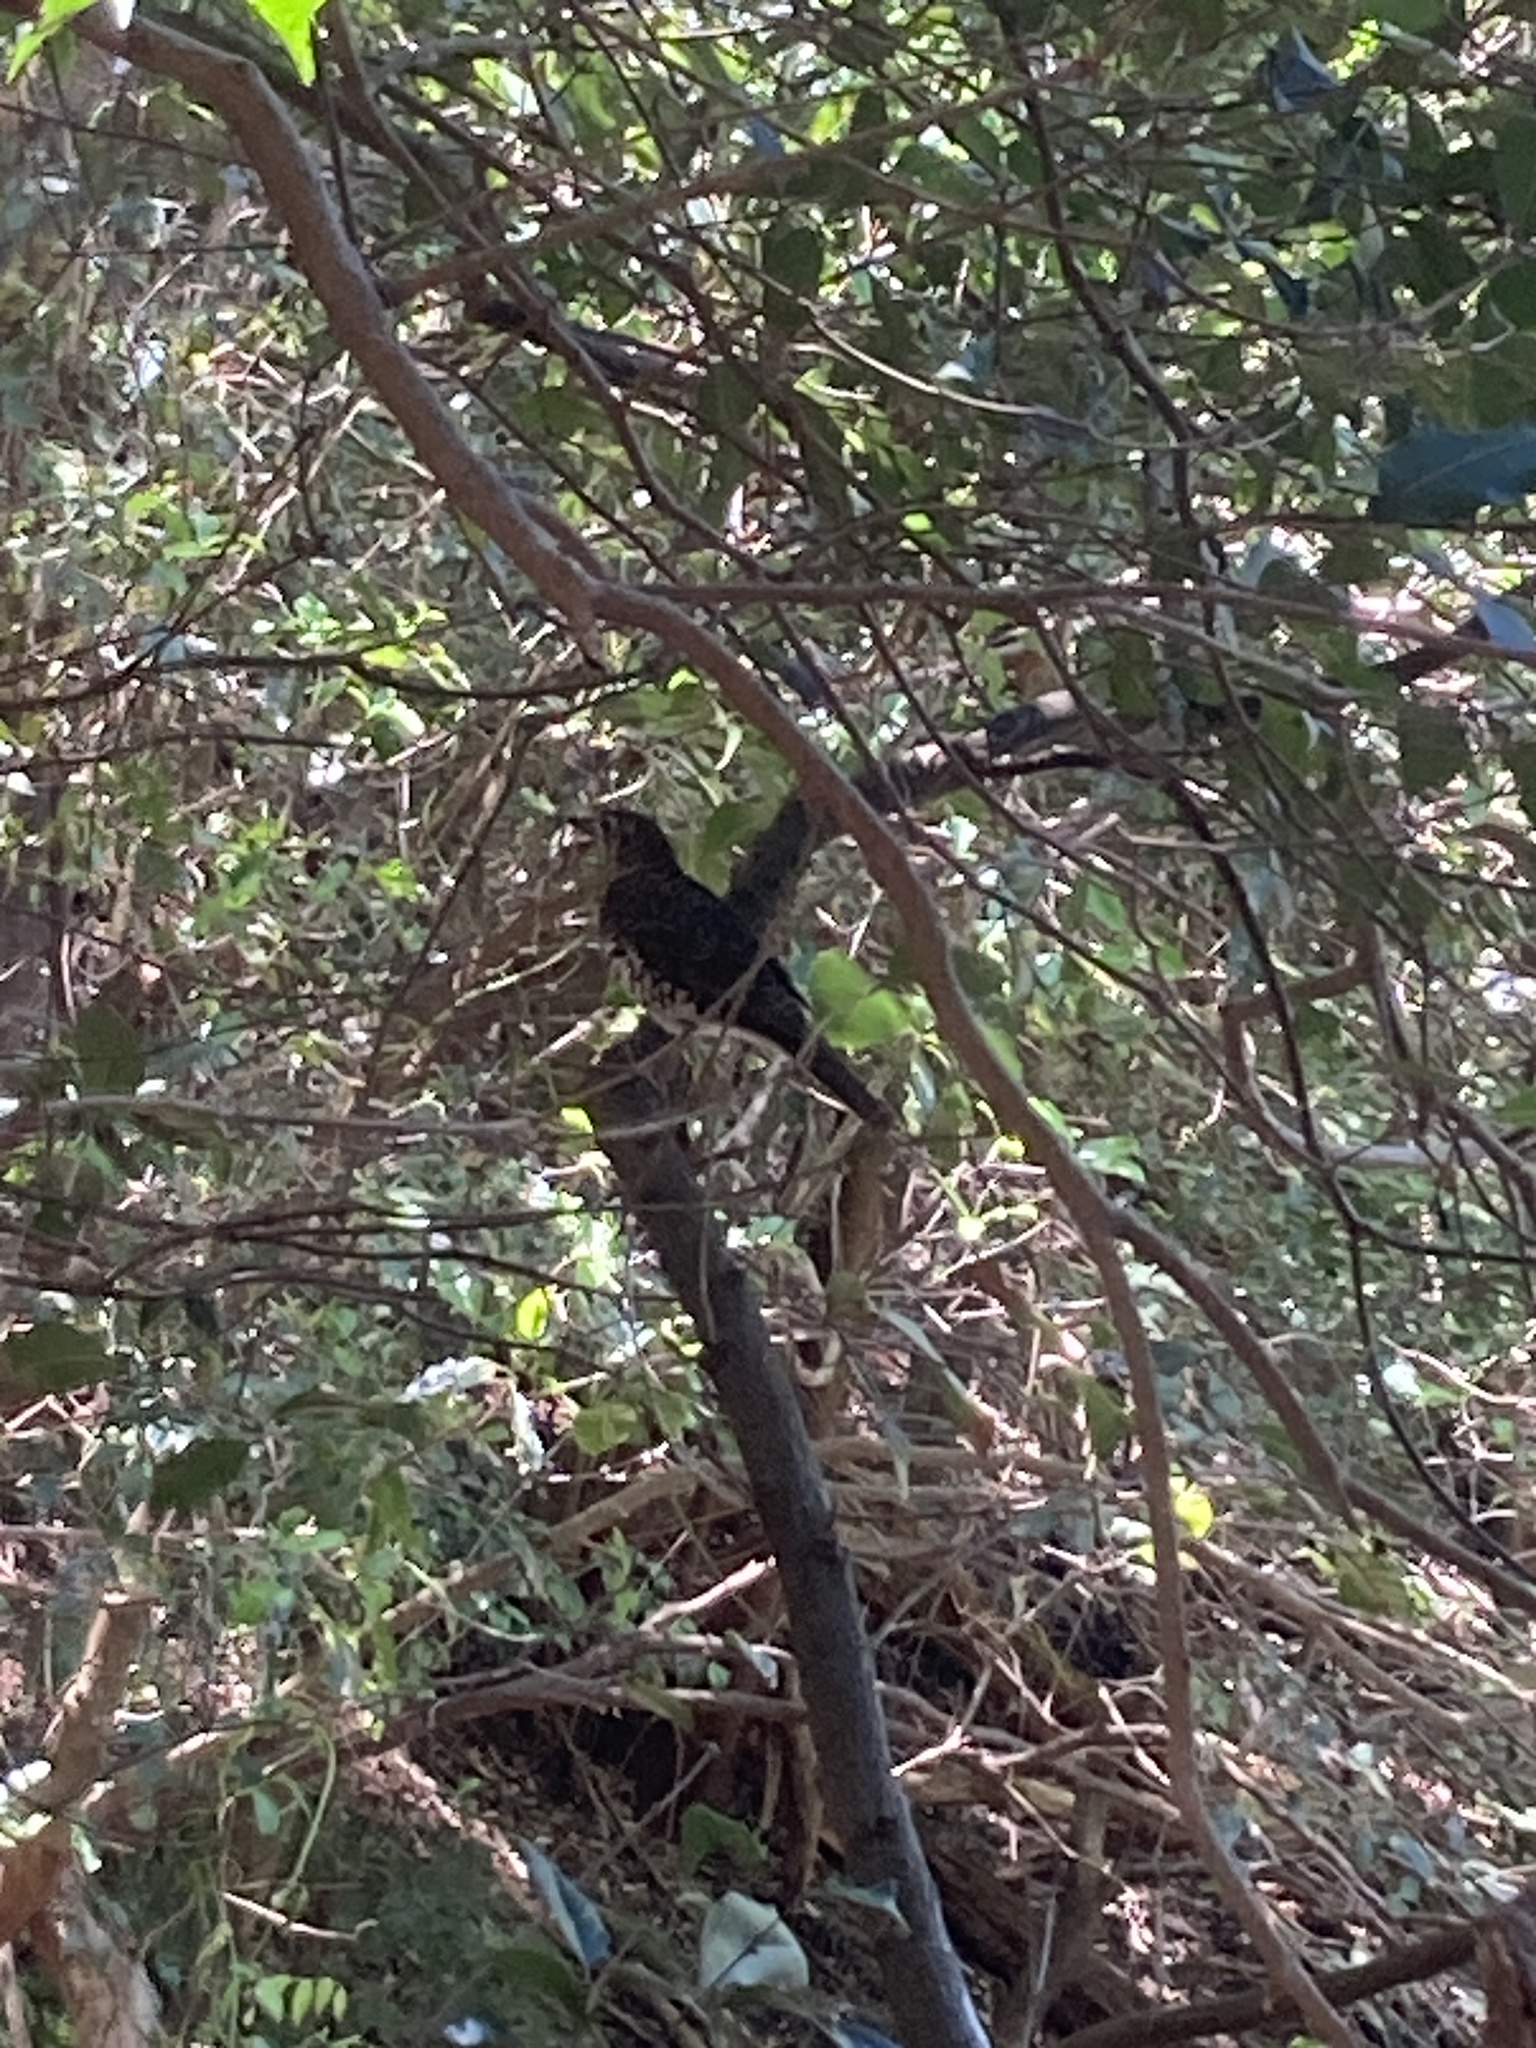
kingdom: Animalia
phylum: Chordata
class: Aves
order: Passeriformes
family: Turdidae
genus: Zoothera
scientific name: Zoothera lunulata
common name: Bassian thrush
